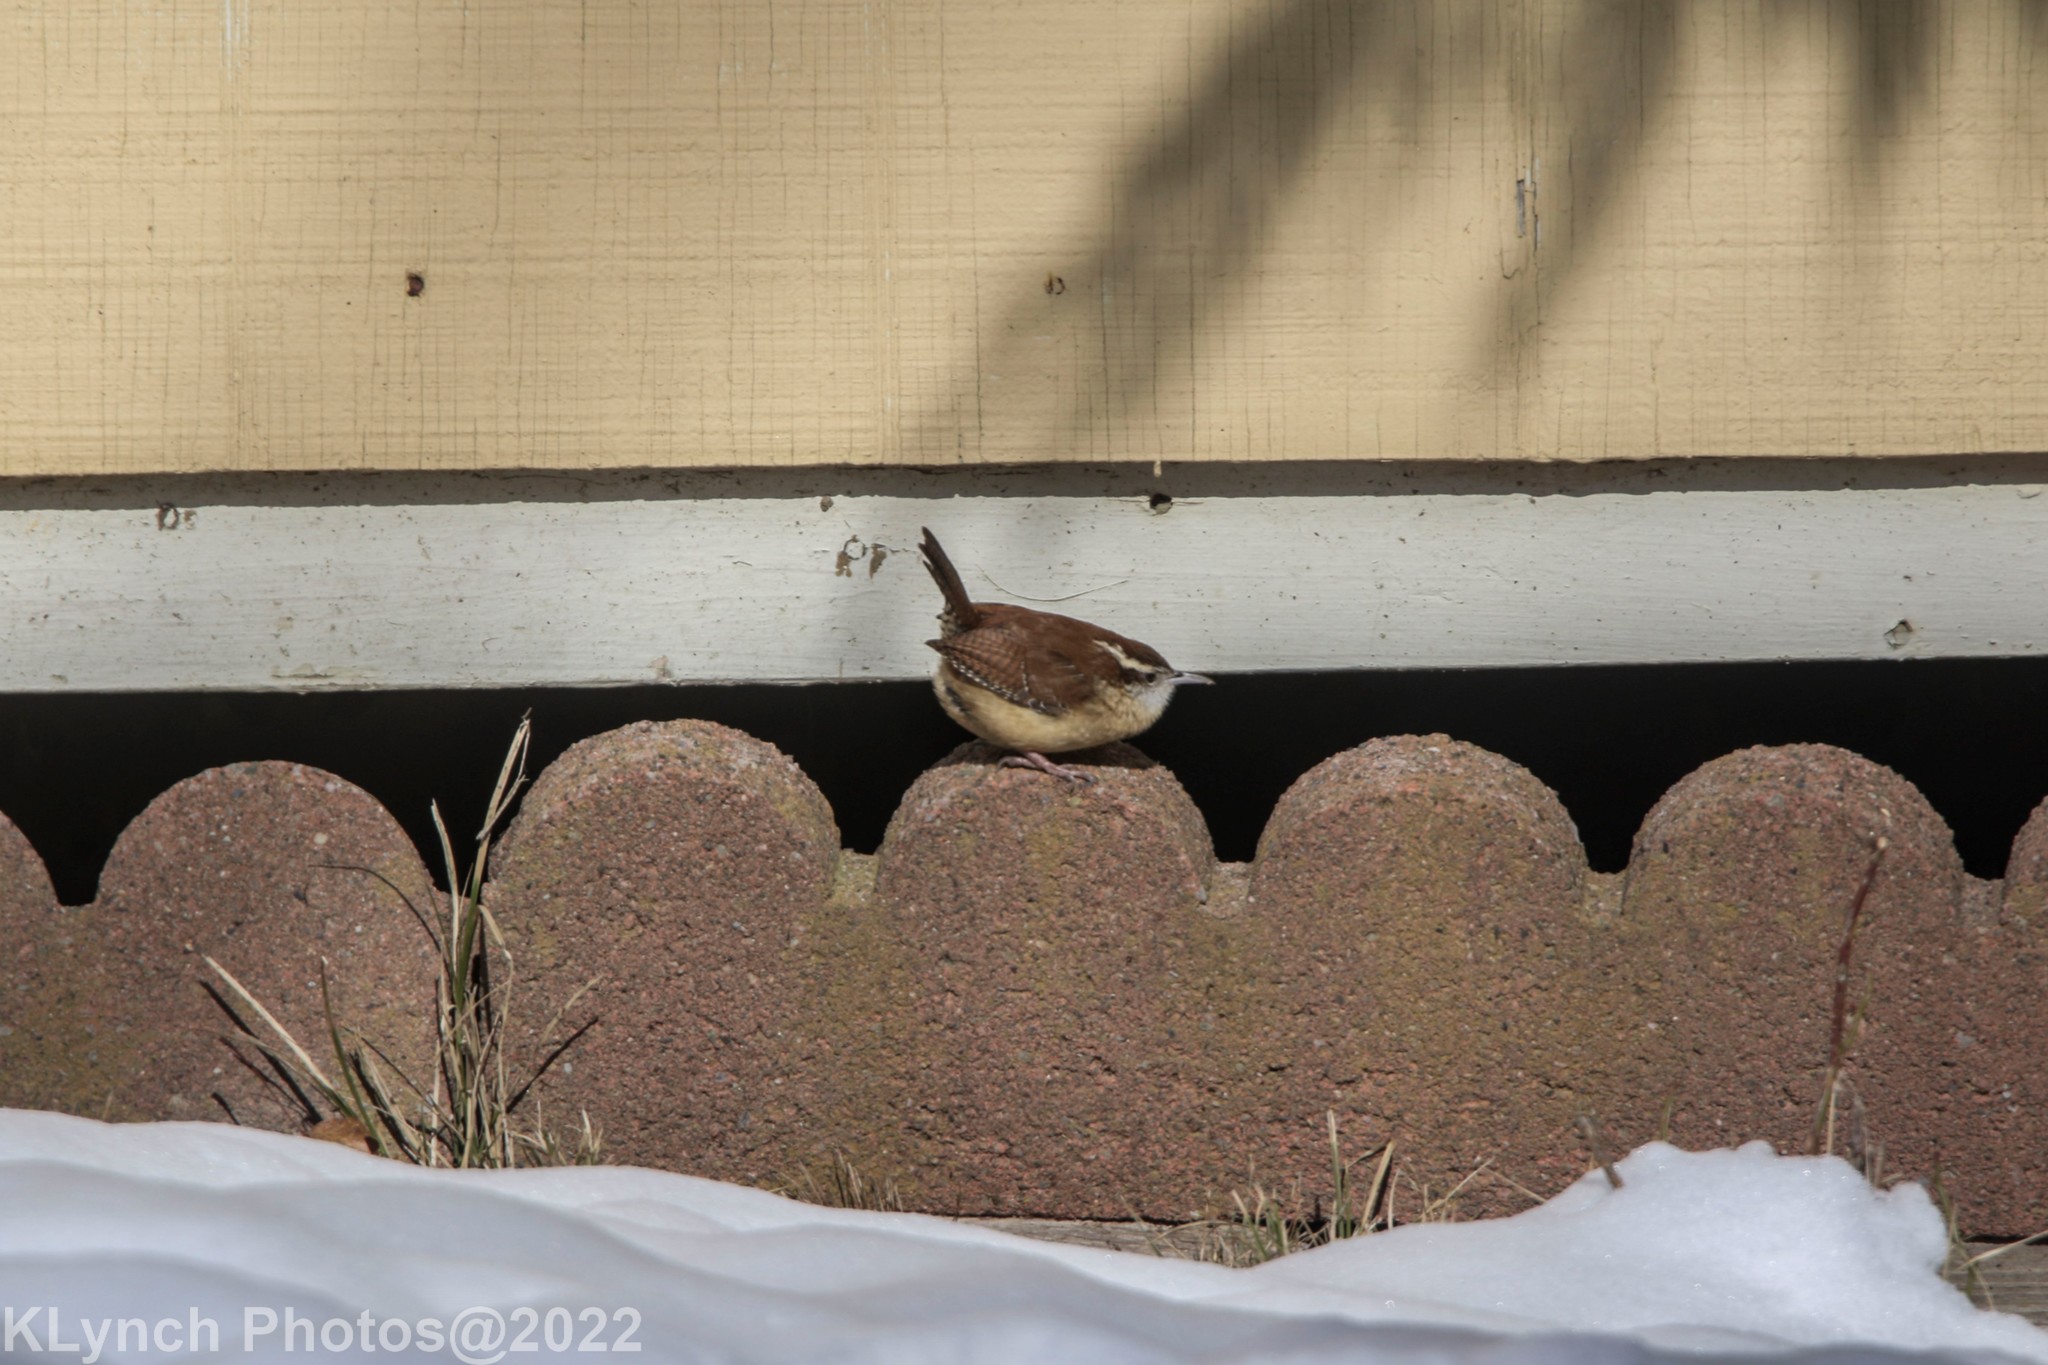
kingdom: Animalia
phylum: Chordata
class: Aves
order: Passeriformes
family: Troglodytidae
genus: Thryothorus
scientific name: Thryothorus ludovicianus
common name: Carolina wren
